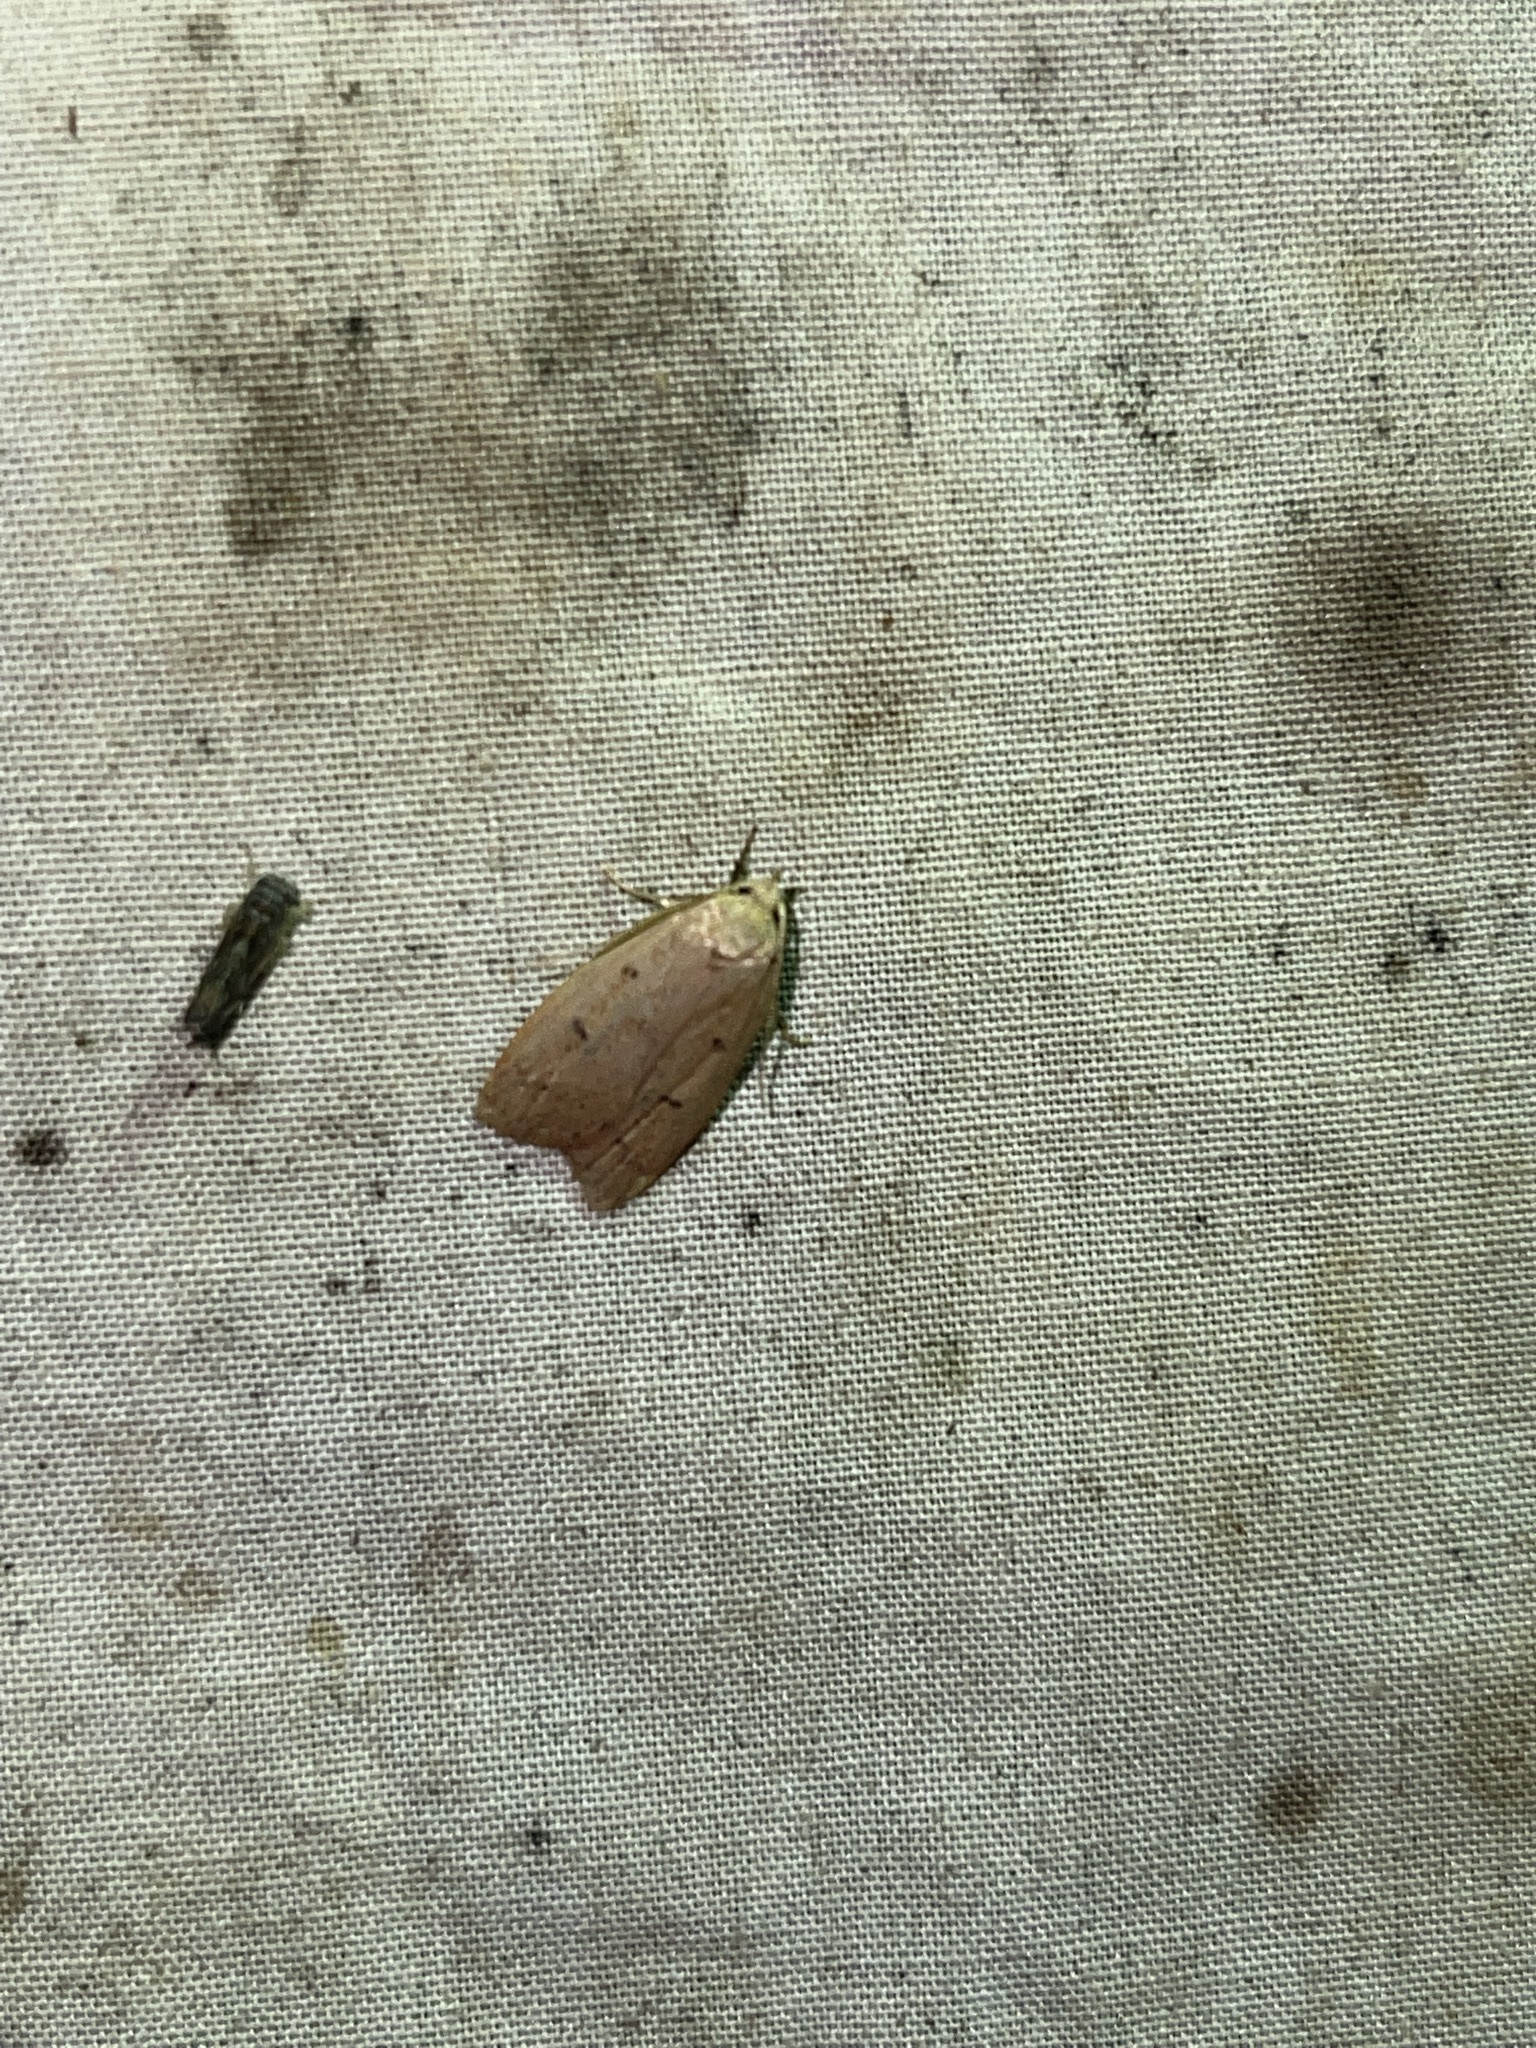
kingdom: Animalia
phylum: Arthropoda
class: Insecta
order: Lepidoptera
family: Peleopodidae
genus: Machimia
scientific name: Machimia tentoriferella
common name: Gold-striped leaftier moth
